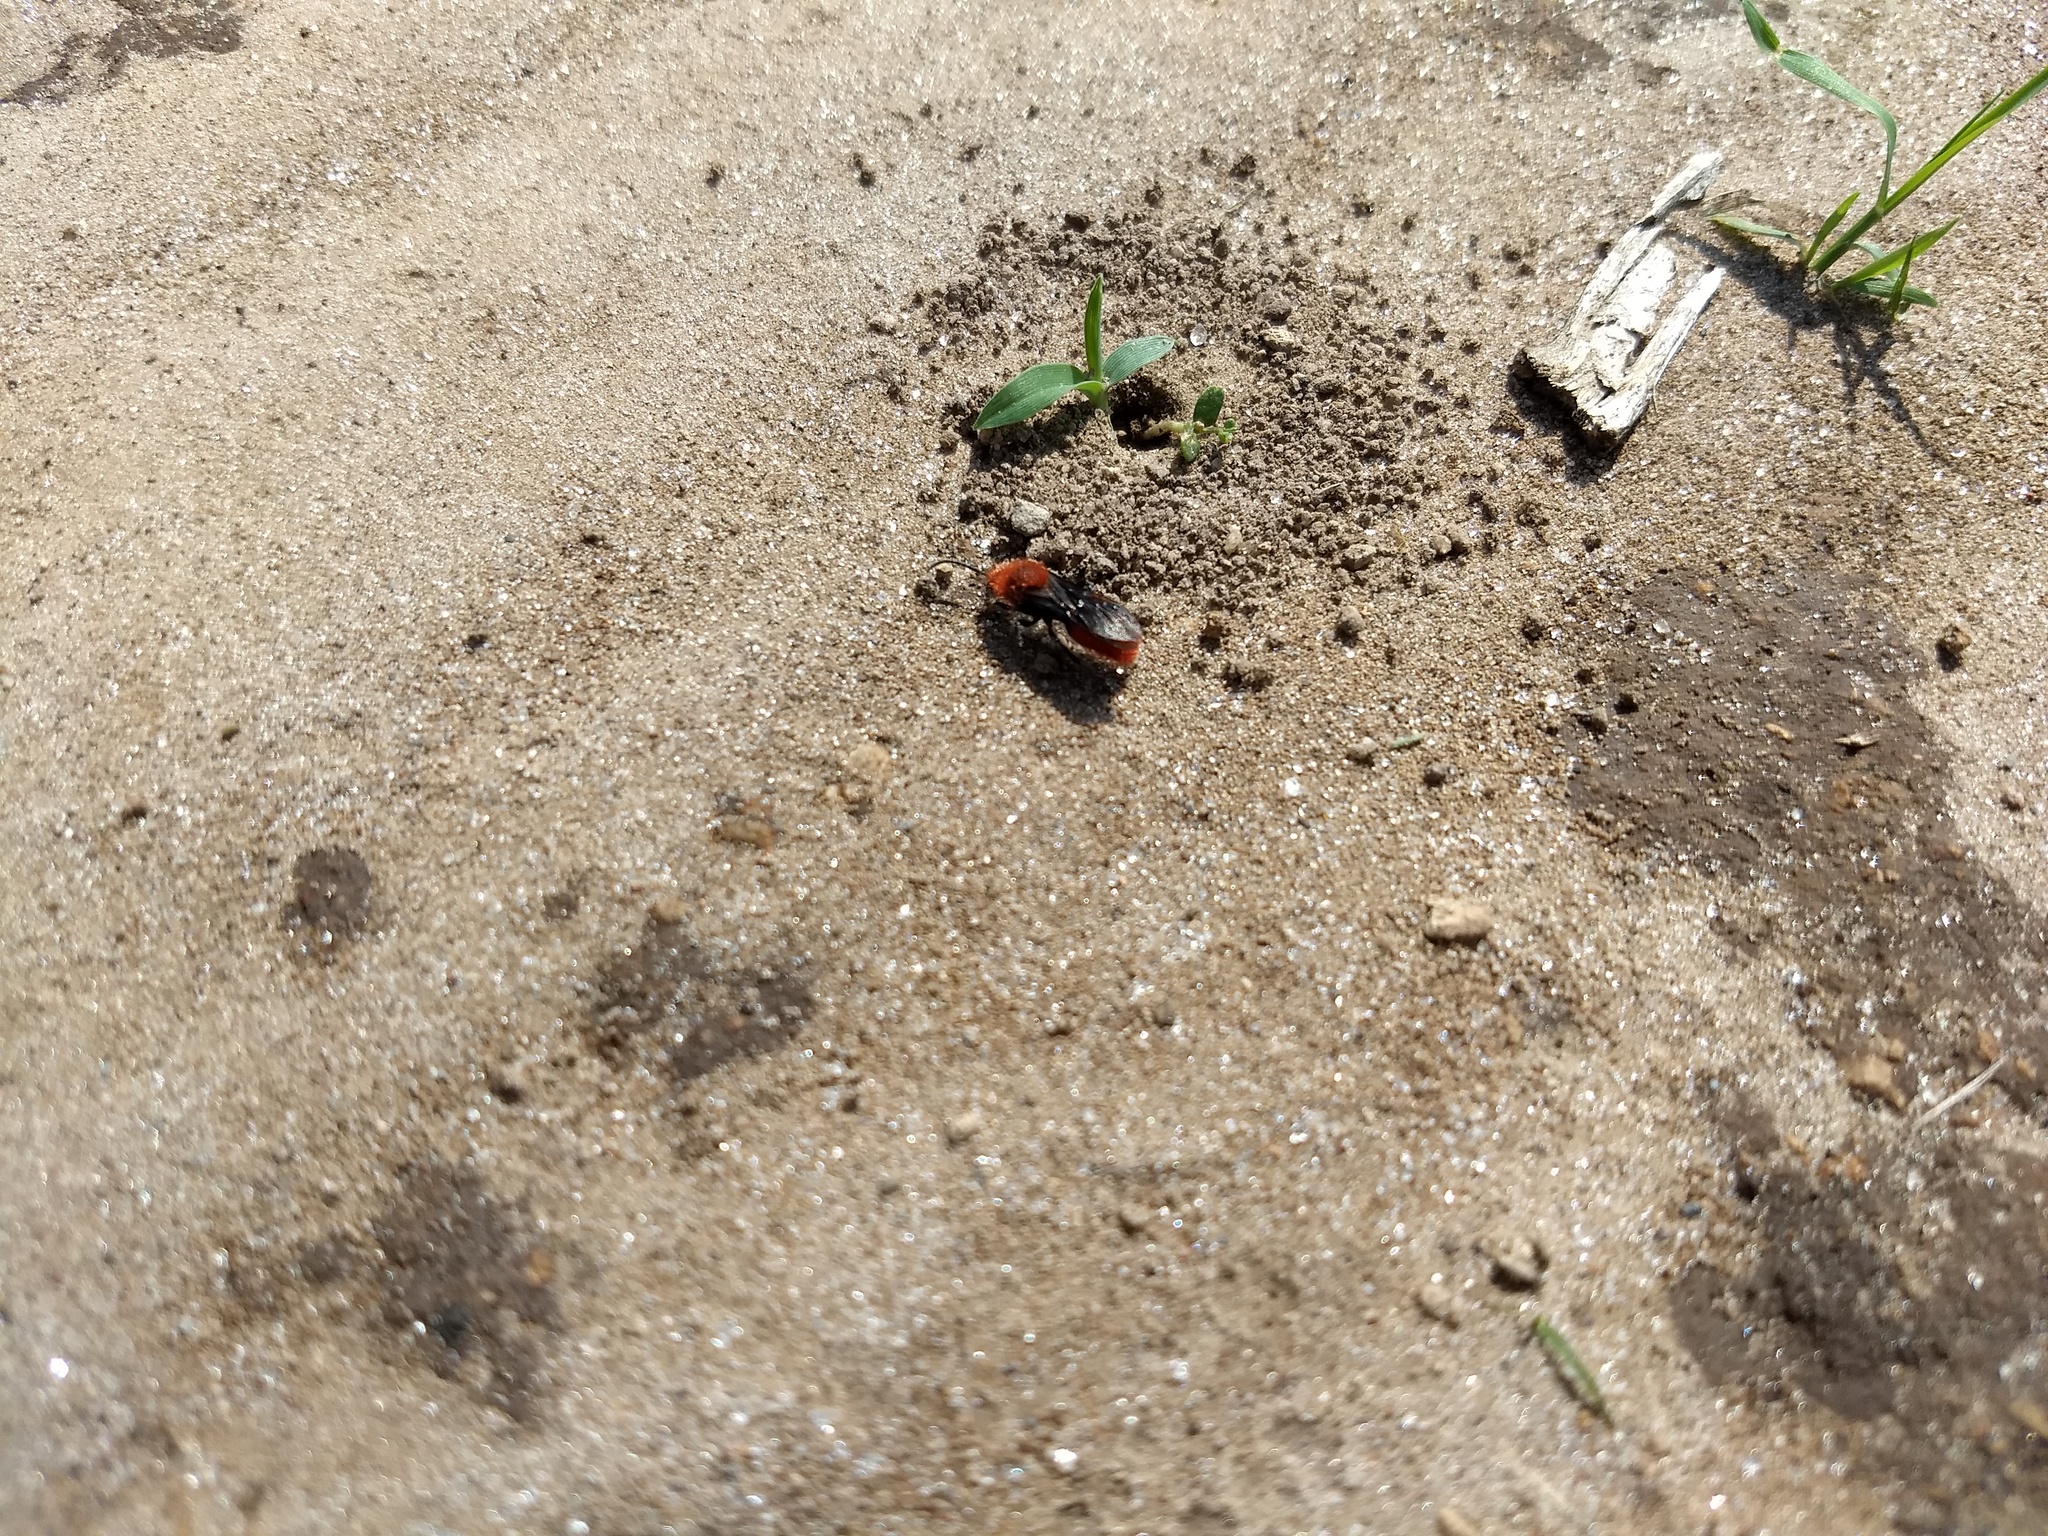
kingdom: Animalia
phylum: Arthropoda
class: Insecta
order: Hymenoptera
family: Mutillidae
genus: Dasymutilla
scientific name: Dasymutilla
